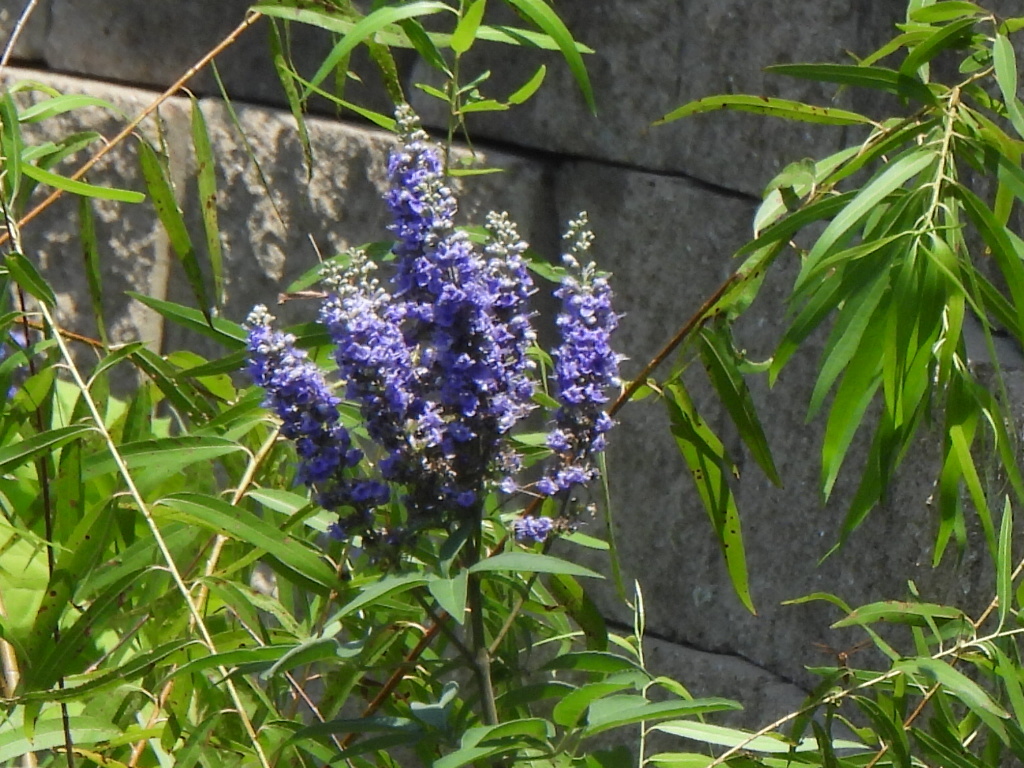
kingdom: Plantae
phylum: Tracheophyta
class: Magnoliopsida
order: Lamiales
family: Lamiaceae
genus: Vitex
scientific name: Vitex agnus-castus
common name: Chasteberry
